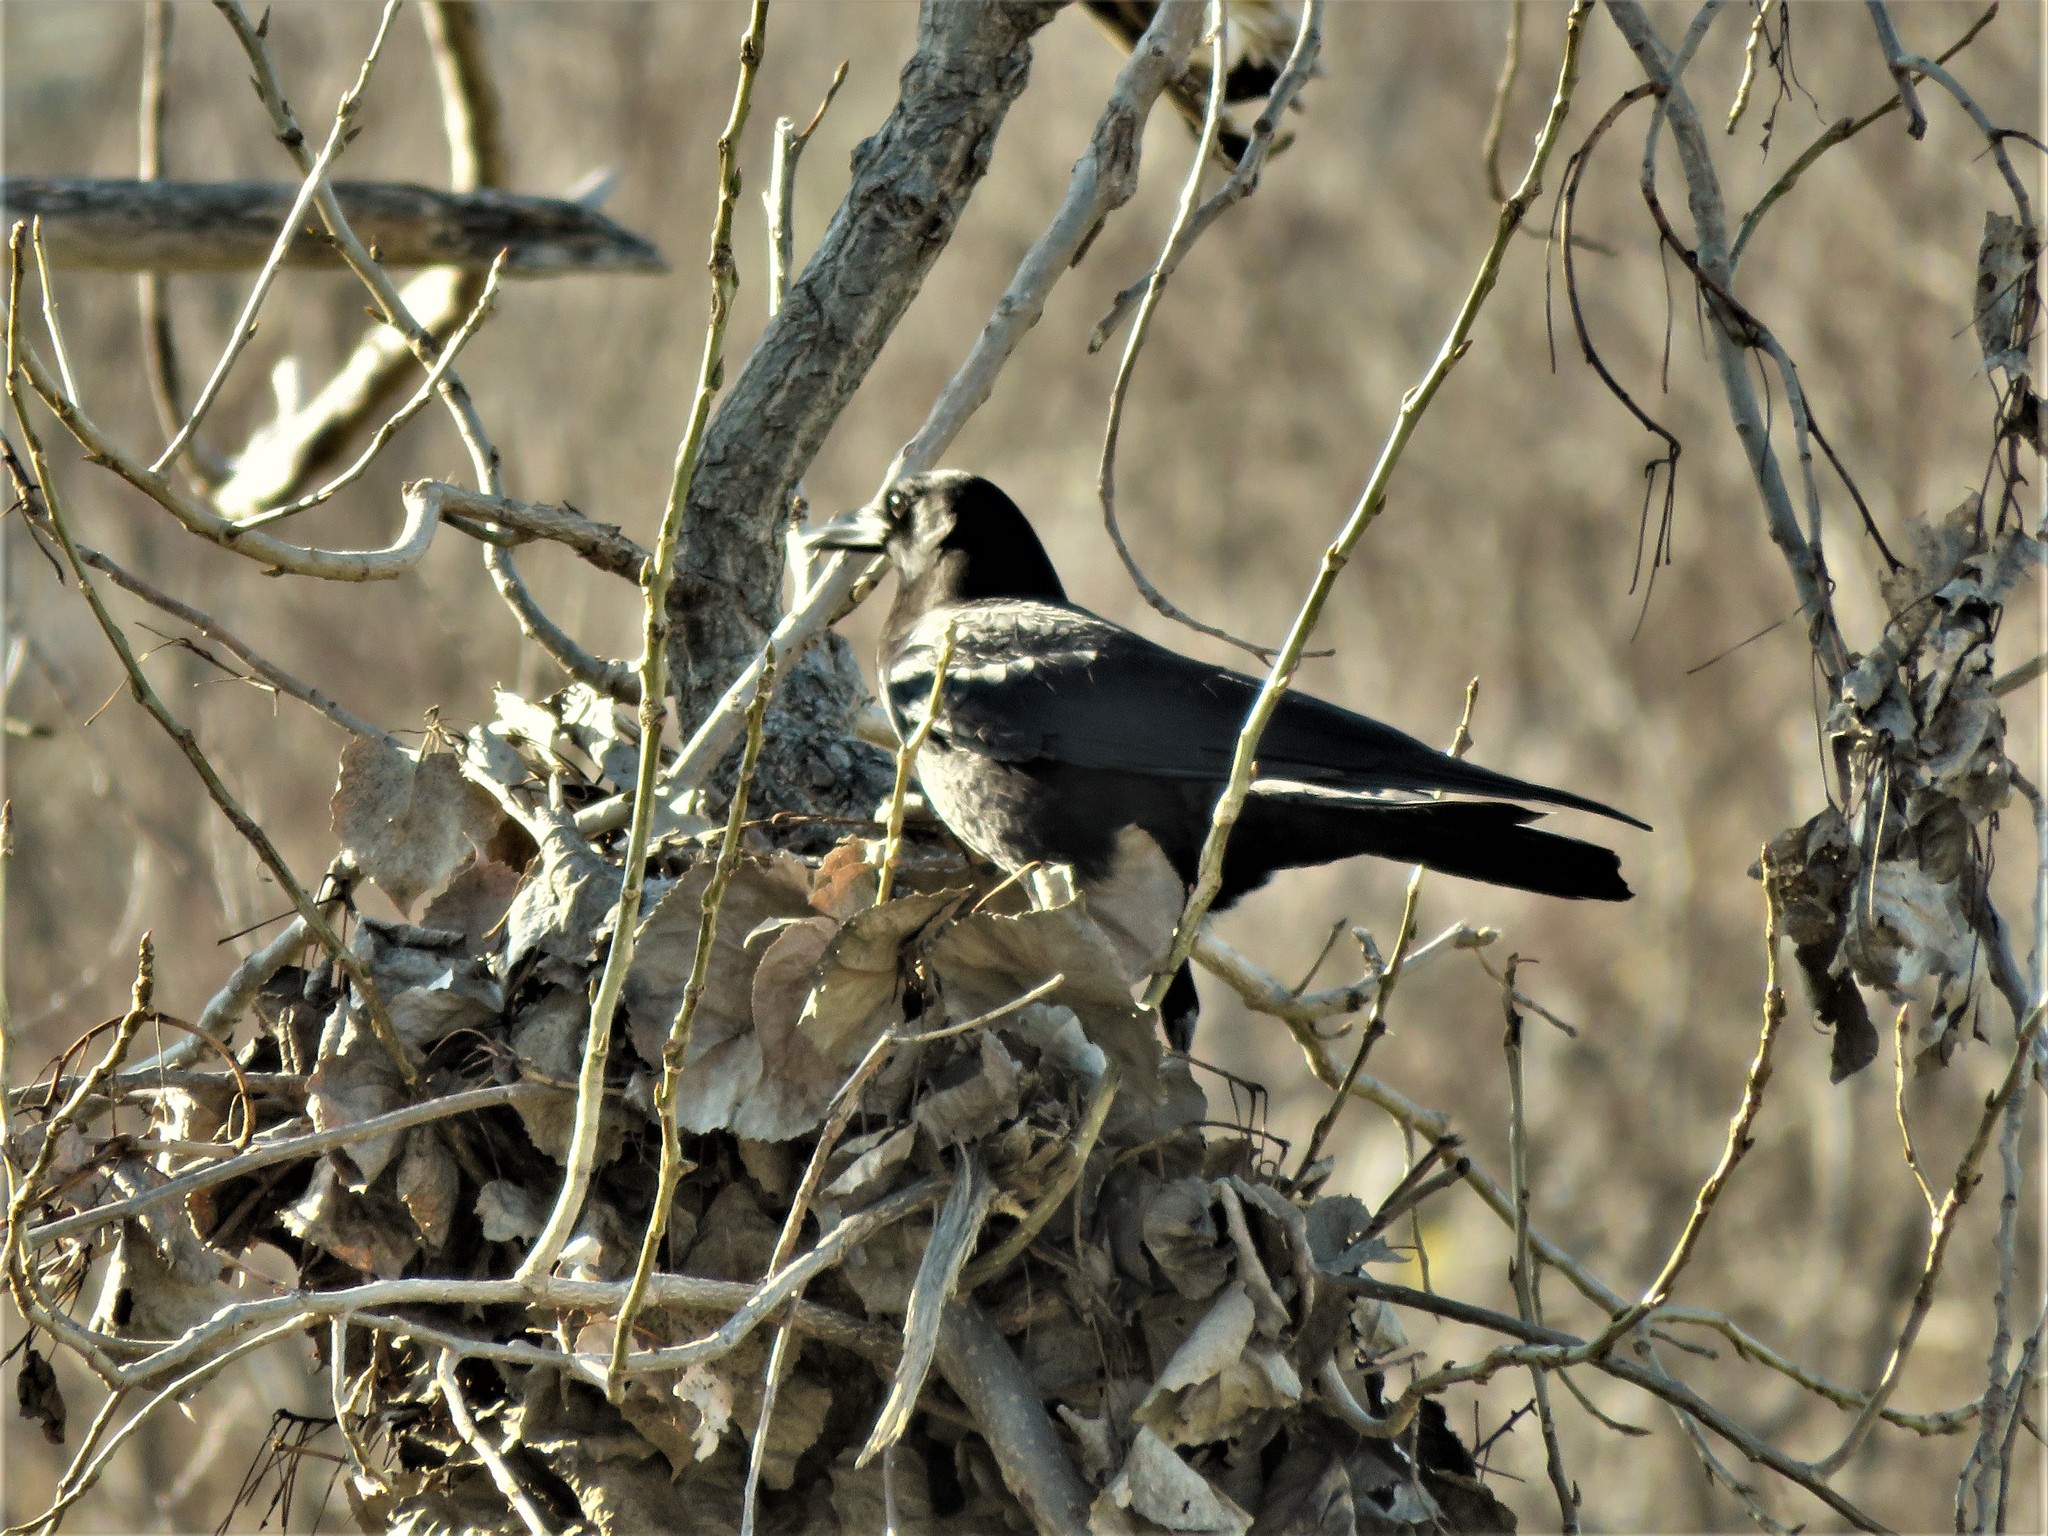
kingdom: Animalia
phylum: Chordata
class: Aves
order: Passeriformes
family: Corvidae
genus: Corvus
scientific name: Corvus brachyrhynchos
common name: American crow
